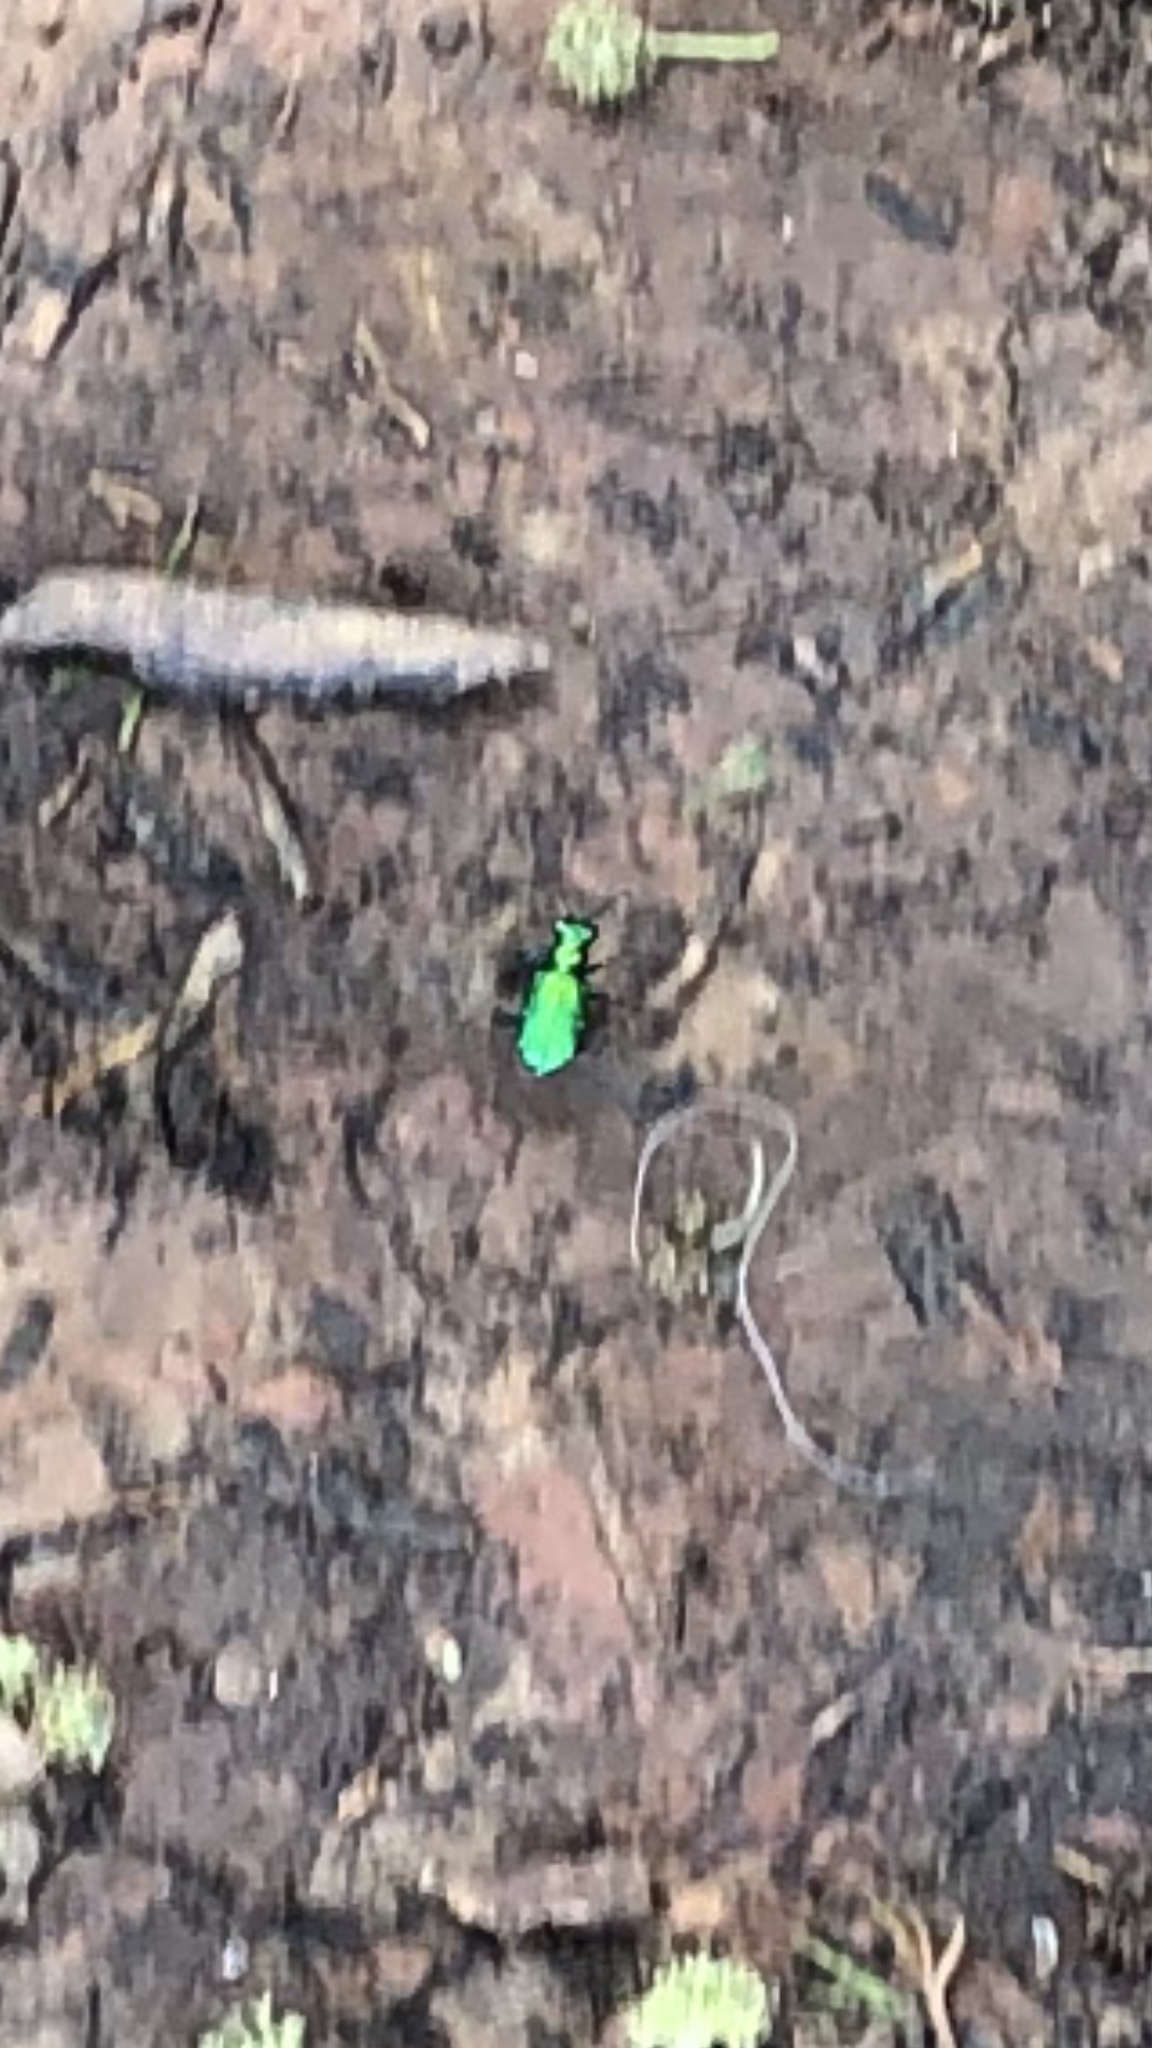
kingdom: Animalia
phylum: Arthropoda
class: Insecta
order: Coleoptera
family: Carabidae
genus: Cicindela
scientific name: Cicindela sexguttata
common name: Six-spotted tiger beetle
